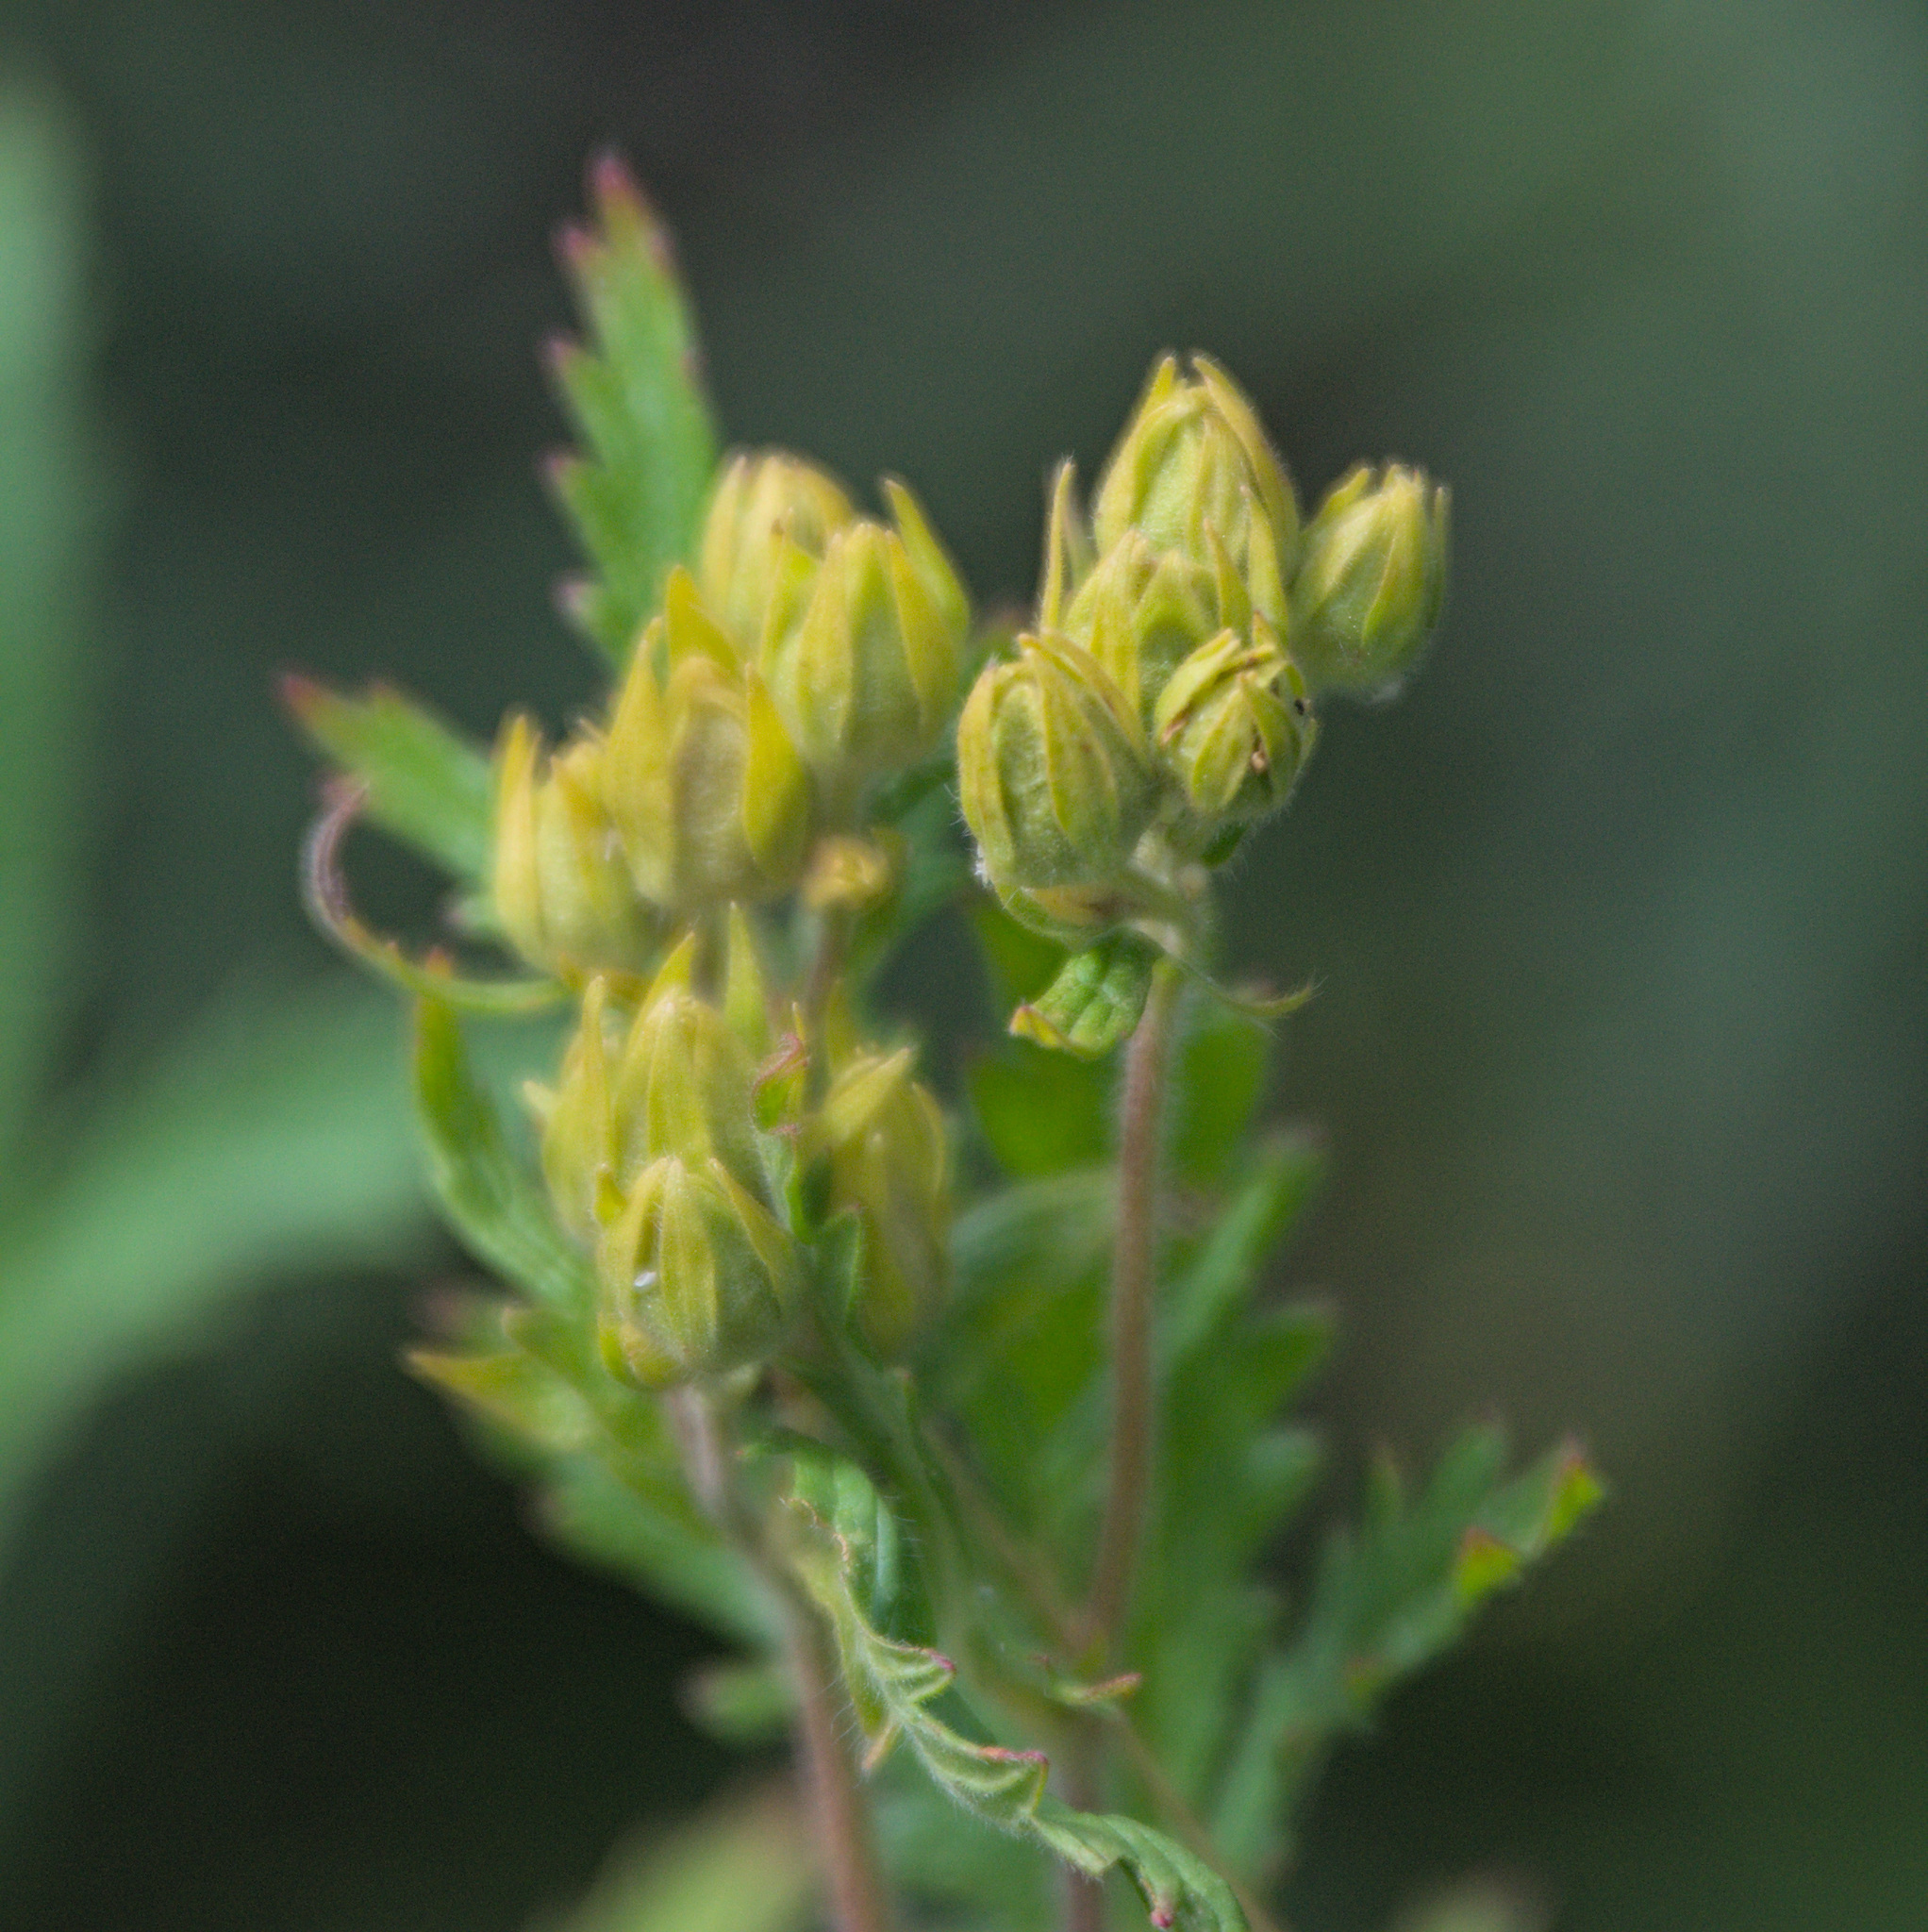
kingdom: Plantae
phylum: Tracheophyta
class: Magnoliopsida
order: Rosales
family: Rosaceae
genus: Potentilla
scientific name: Potentilla longifolia
